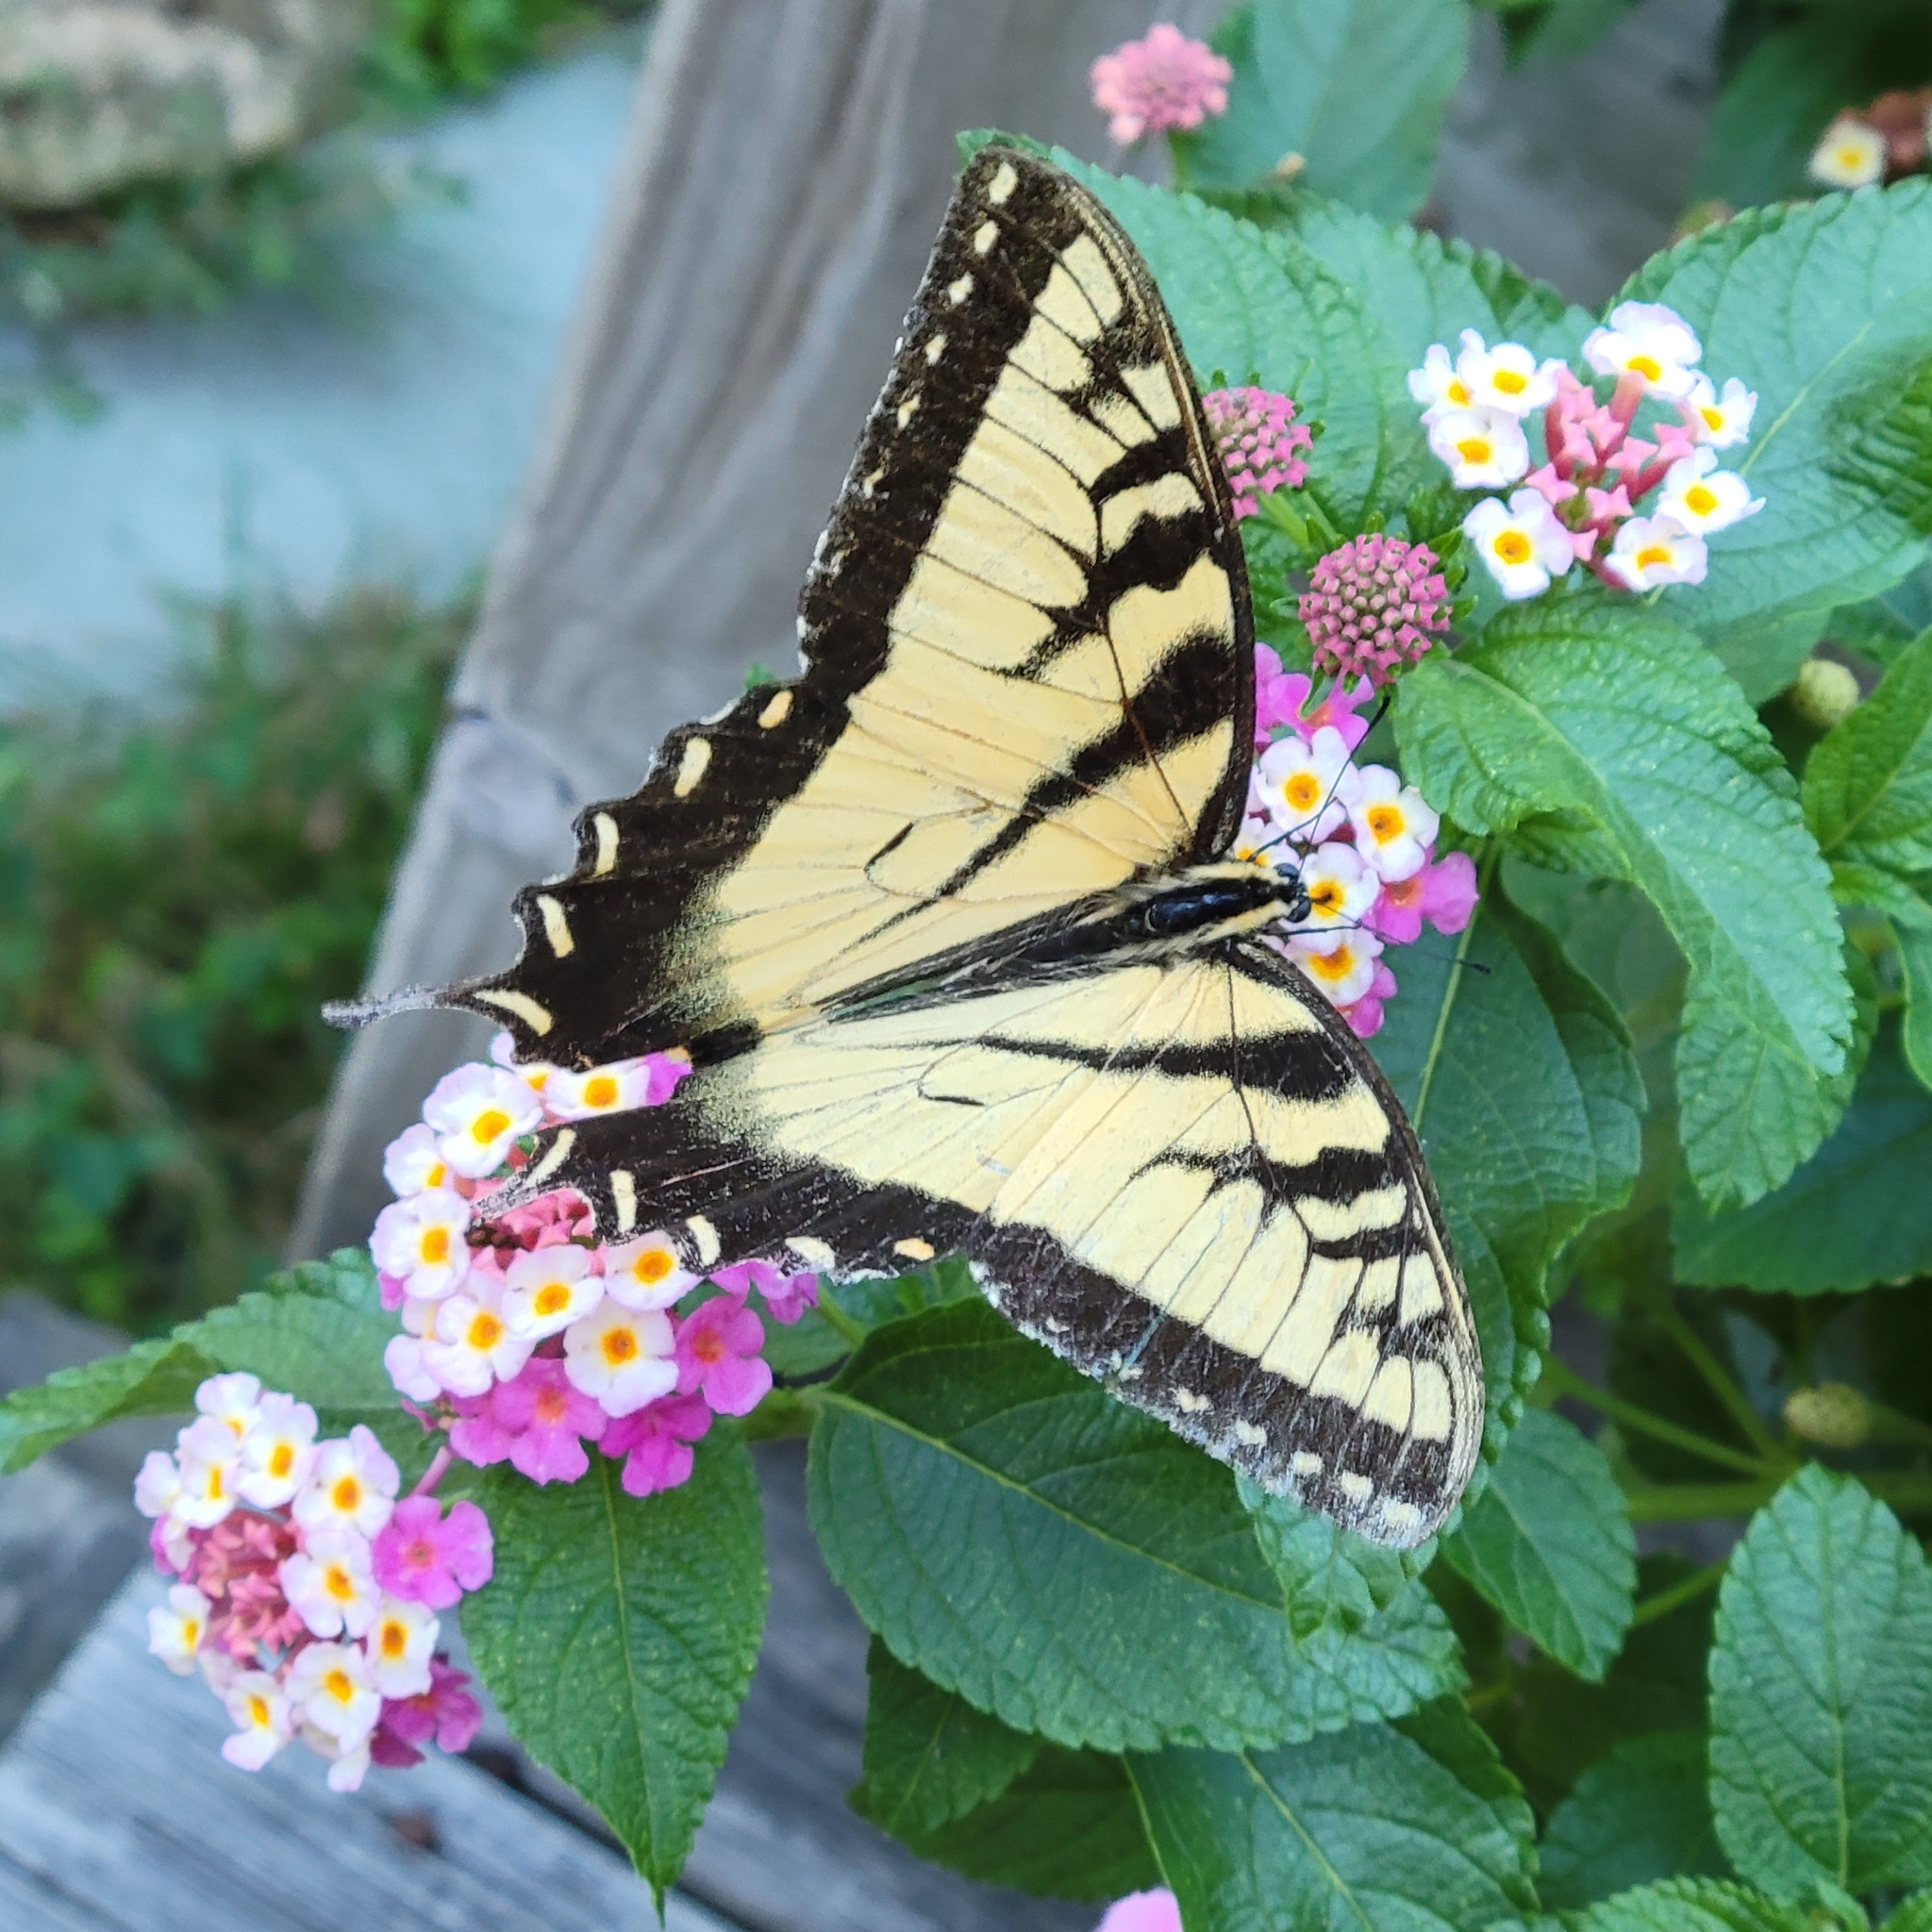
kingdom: Animalia
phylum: Arthropoda
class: Insecta
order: Lepidoptera
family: Papilionidae
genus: Papilio
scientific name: Papilio glaucus
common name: Tiger swallowtail
